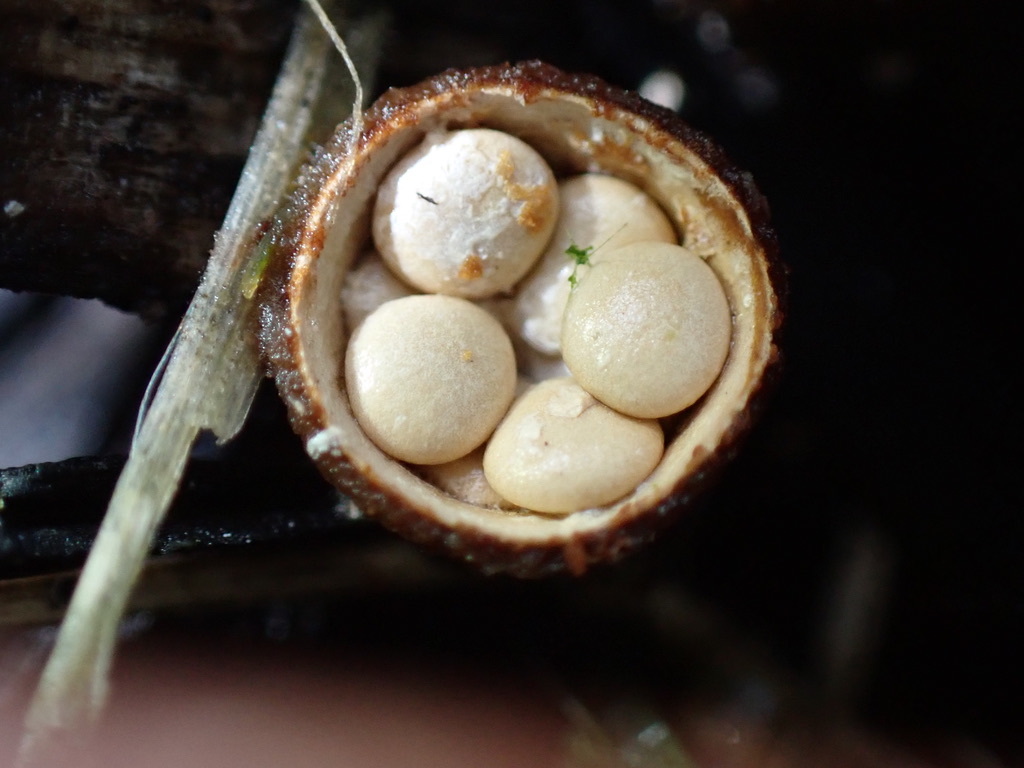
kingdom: Fungi
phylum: Basidiomycota
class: Agaricomycetes
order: Agaricales
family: Nidulariaceae
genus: Crucibulum
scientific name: Crucibulum laeve
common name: Common bird's nest
